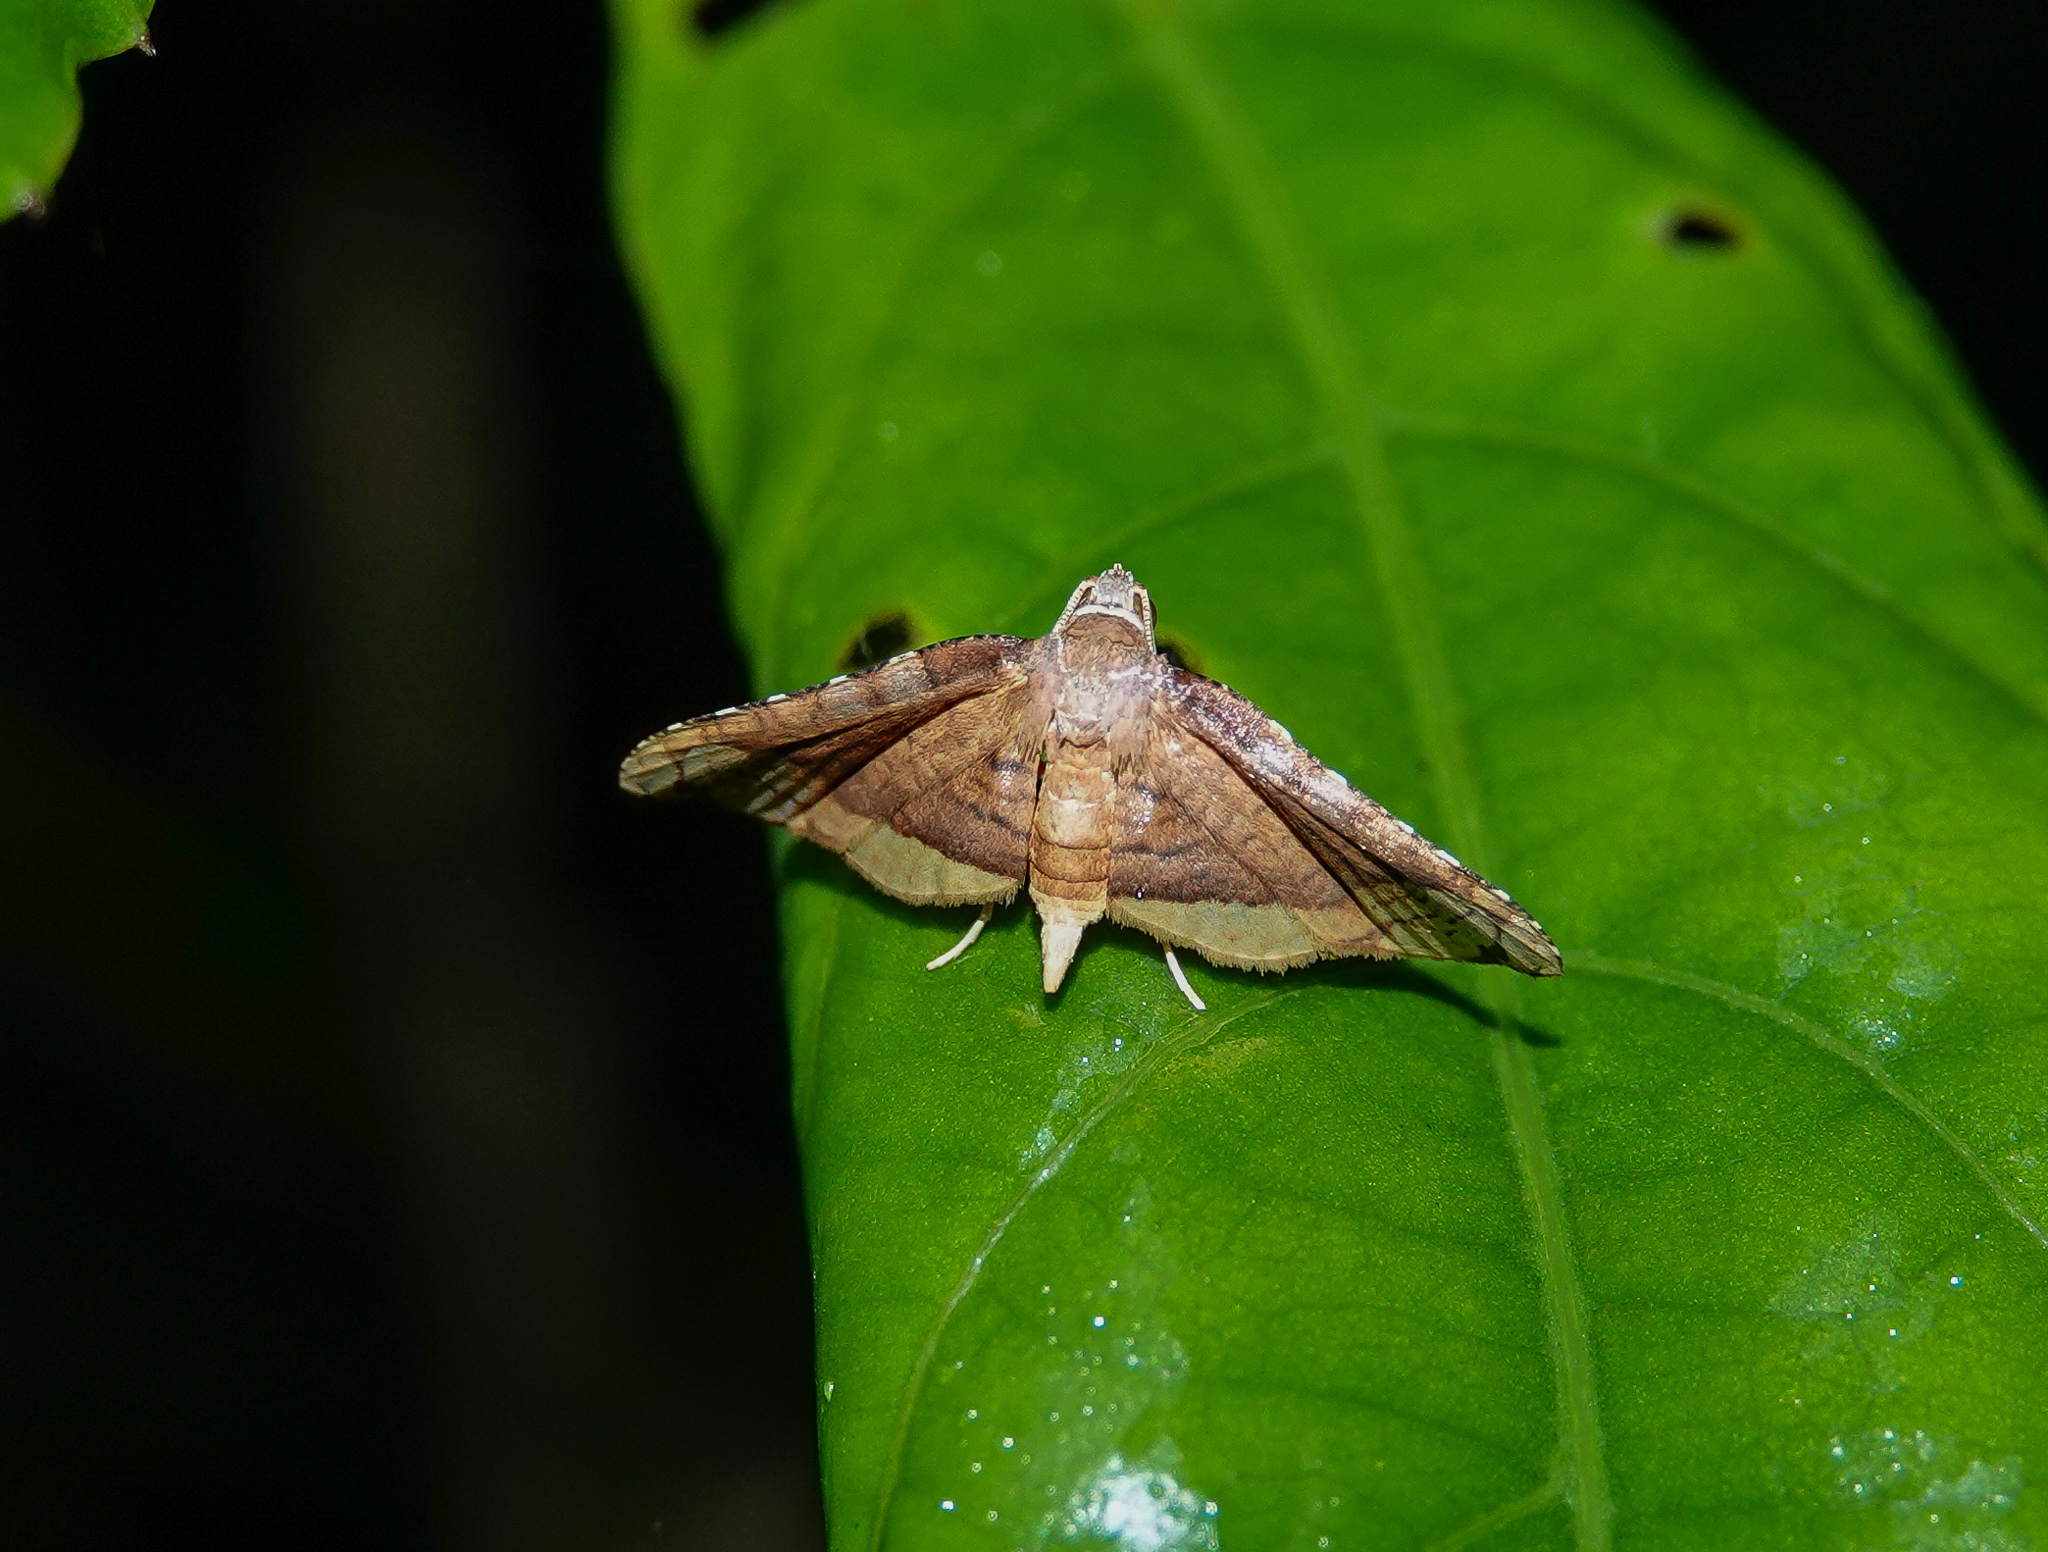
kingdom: Animalia
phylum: Arthropoda
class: Insecta
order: Lepidoptera
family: Thyrididae
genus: Collinsa
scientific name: Collinsa
